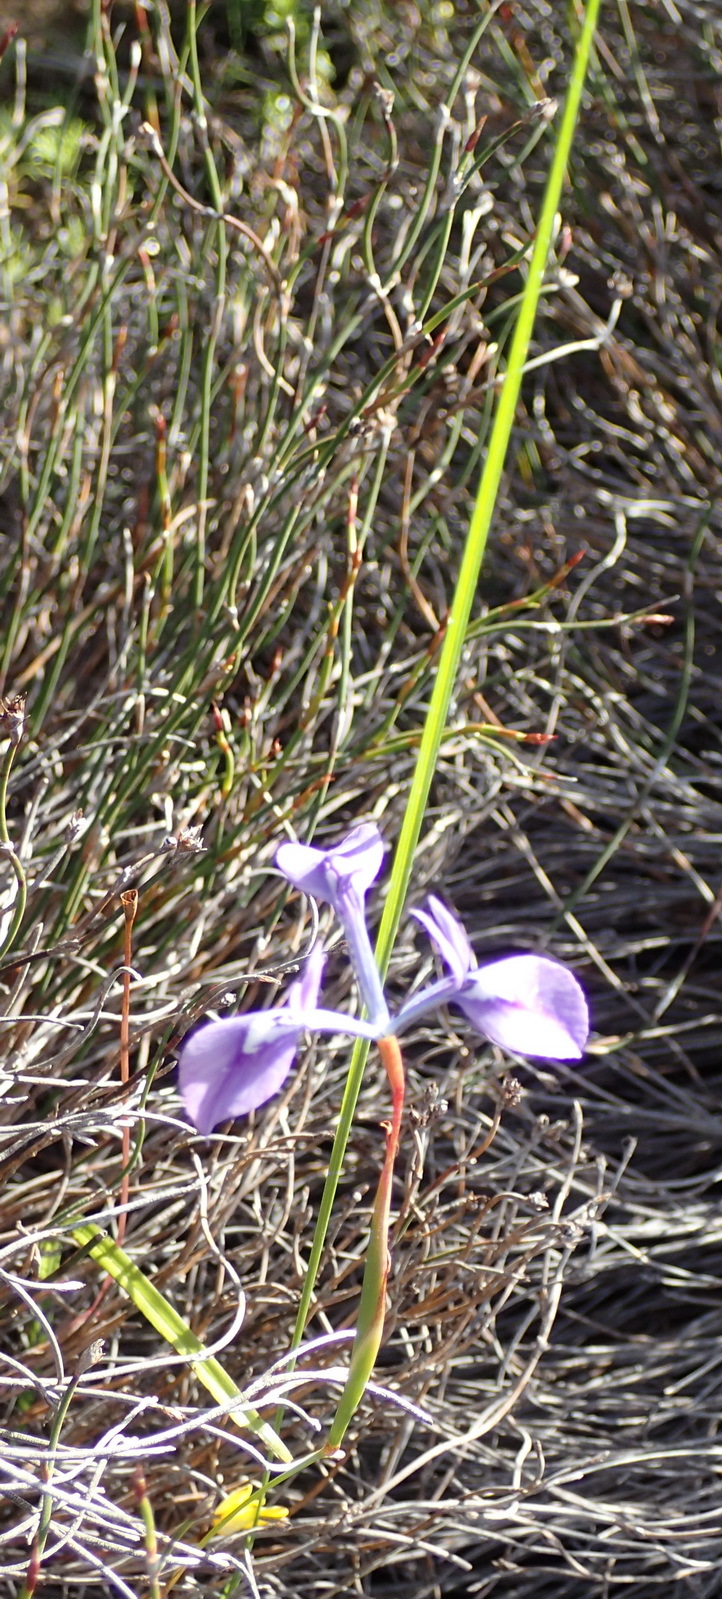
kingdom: Plantae
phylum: Tracheophyta
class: Liliopsida
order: Asparagales
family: Iridaceae
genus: Moraea
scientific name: Moraea tripetala
